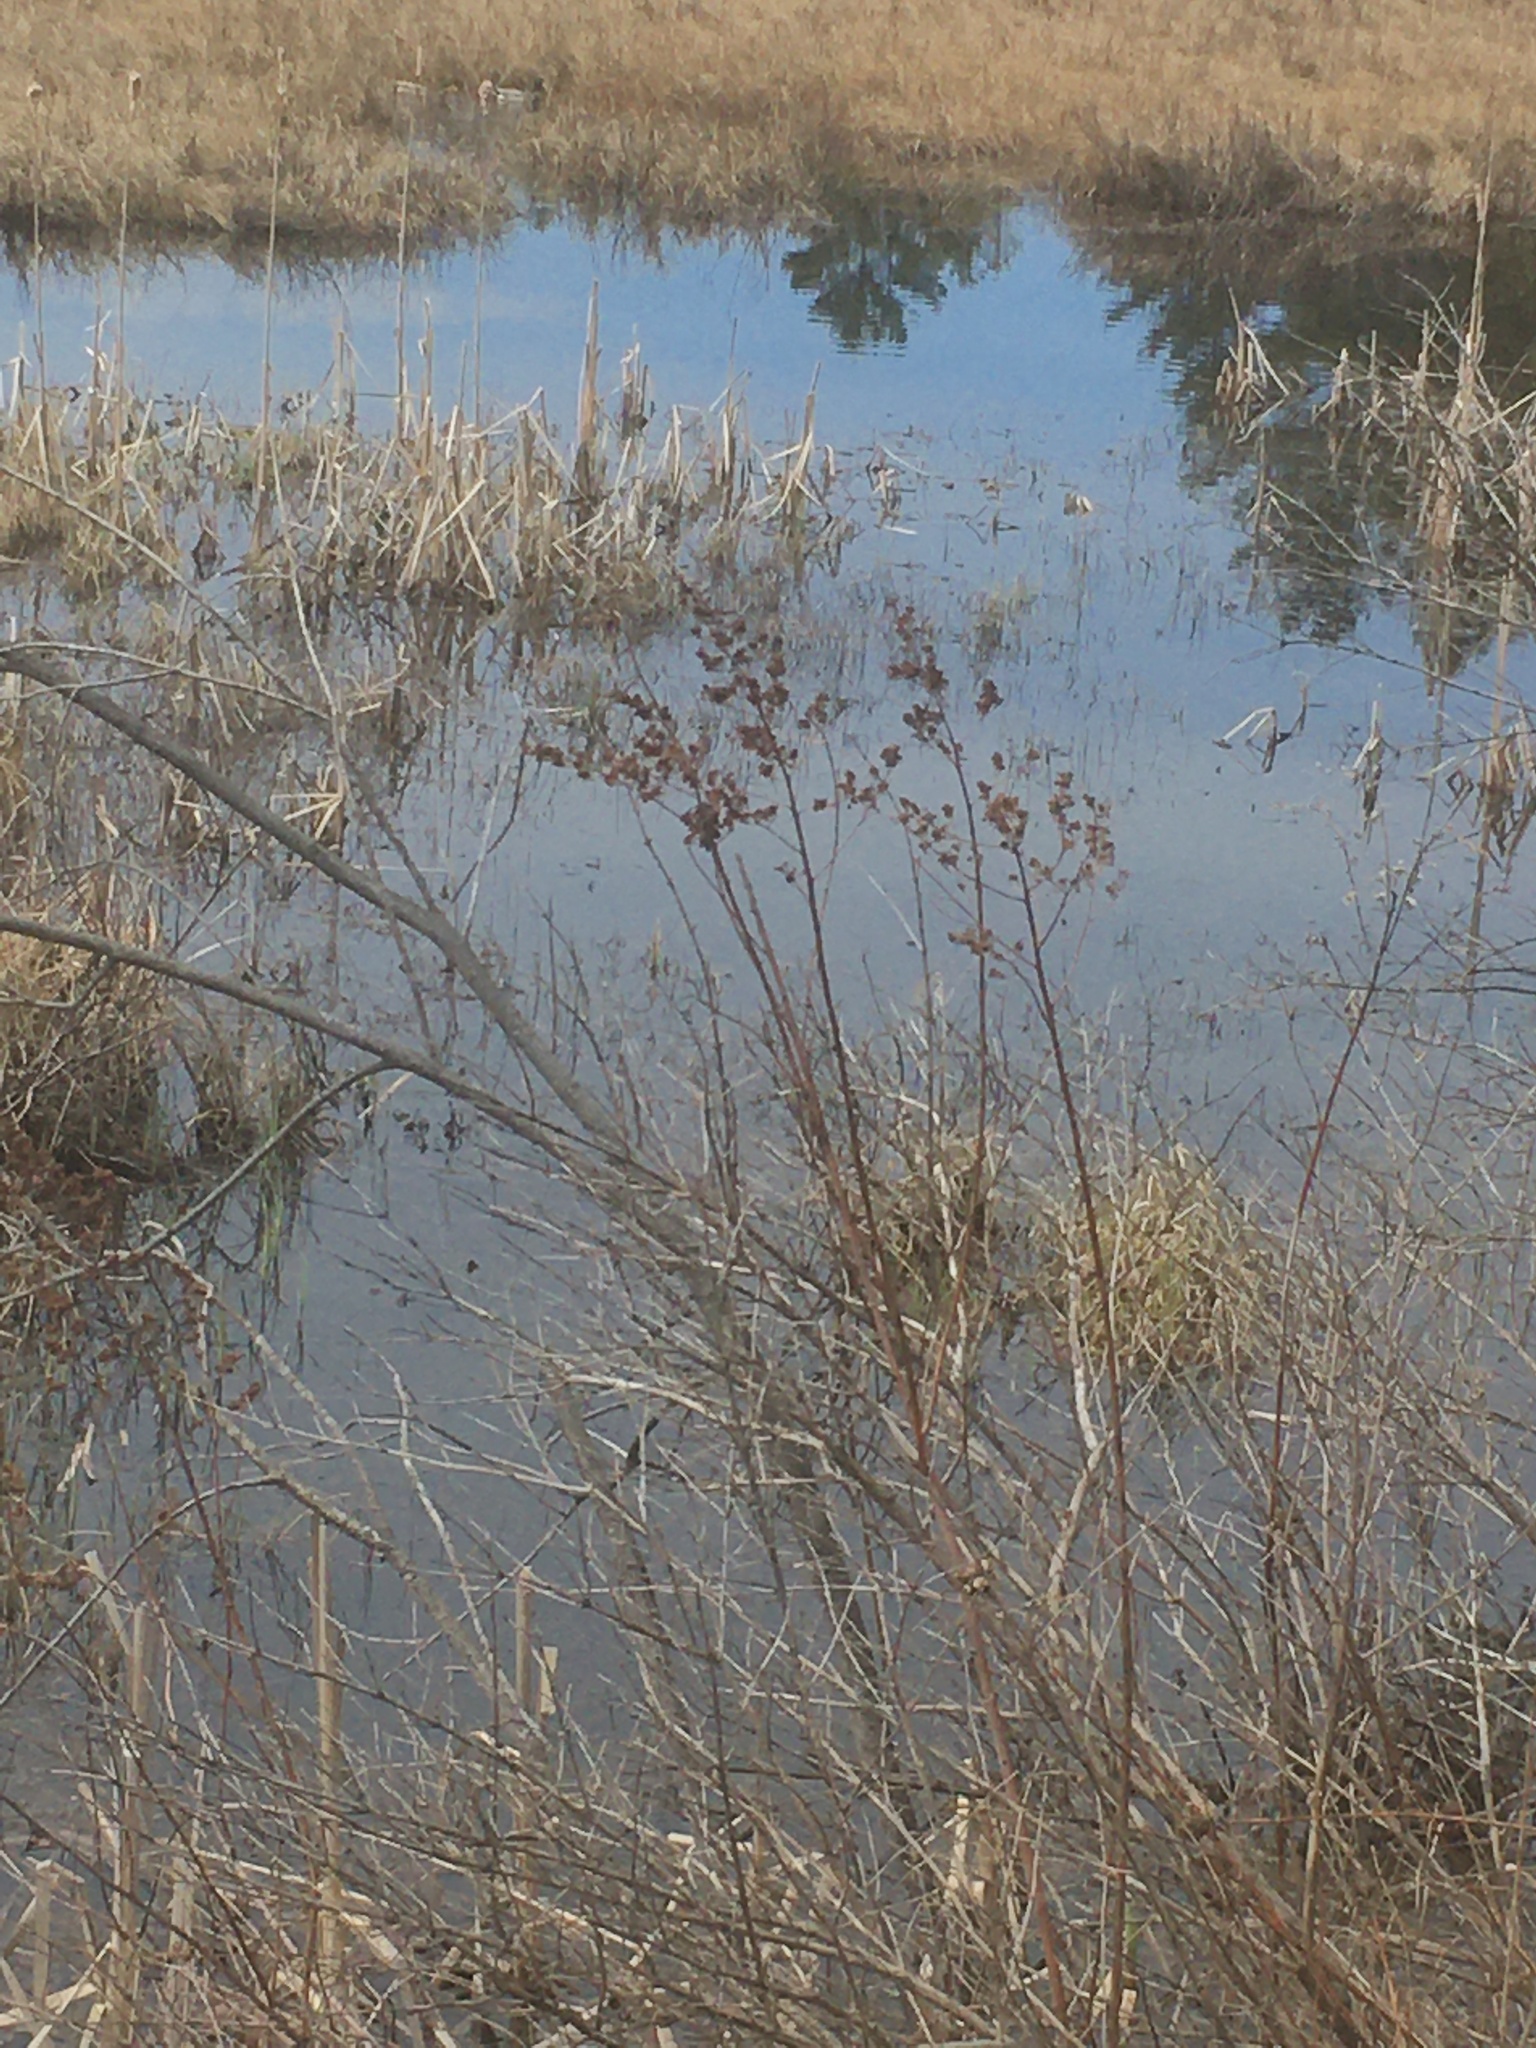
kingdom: Plantae
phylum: Tracheophyta
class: Magnoliopsida
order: Rosales
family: Rosaceae
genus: Spiraea
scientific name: Spiraea alba
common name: Pale bridewort
